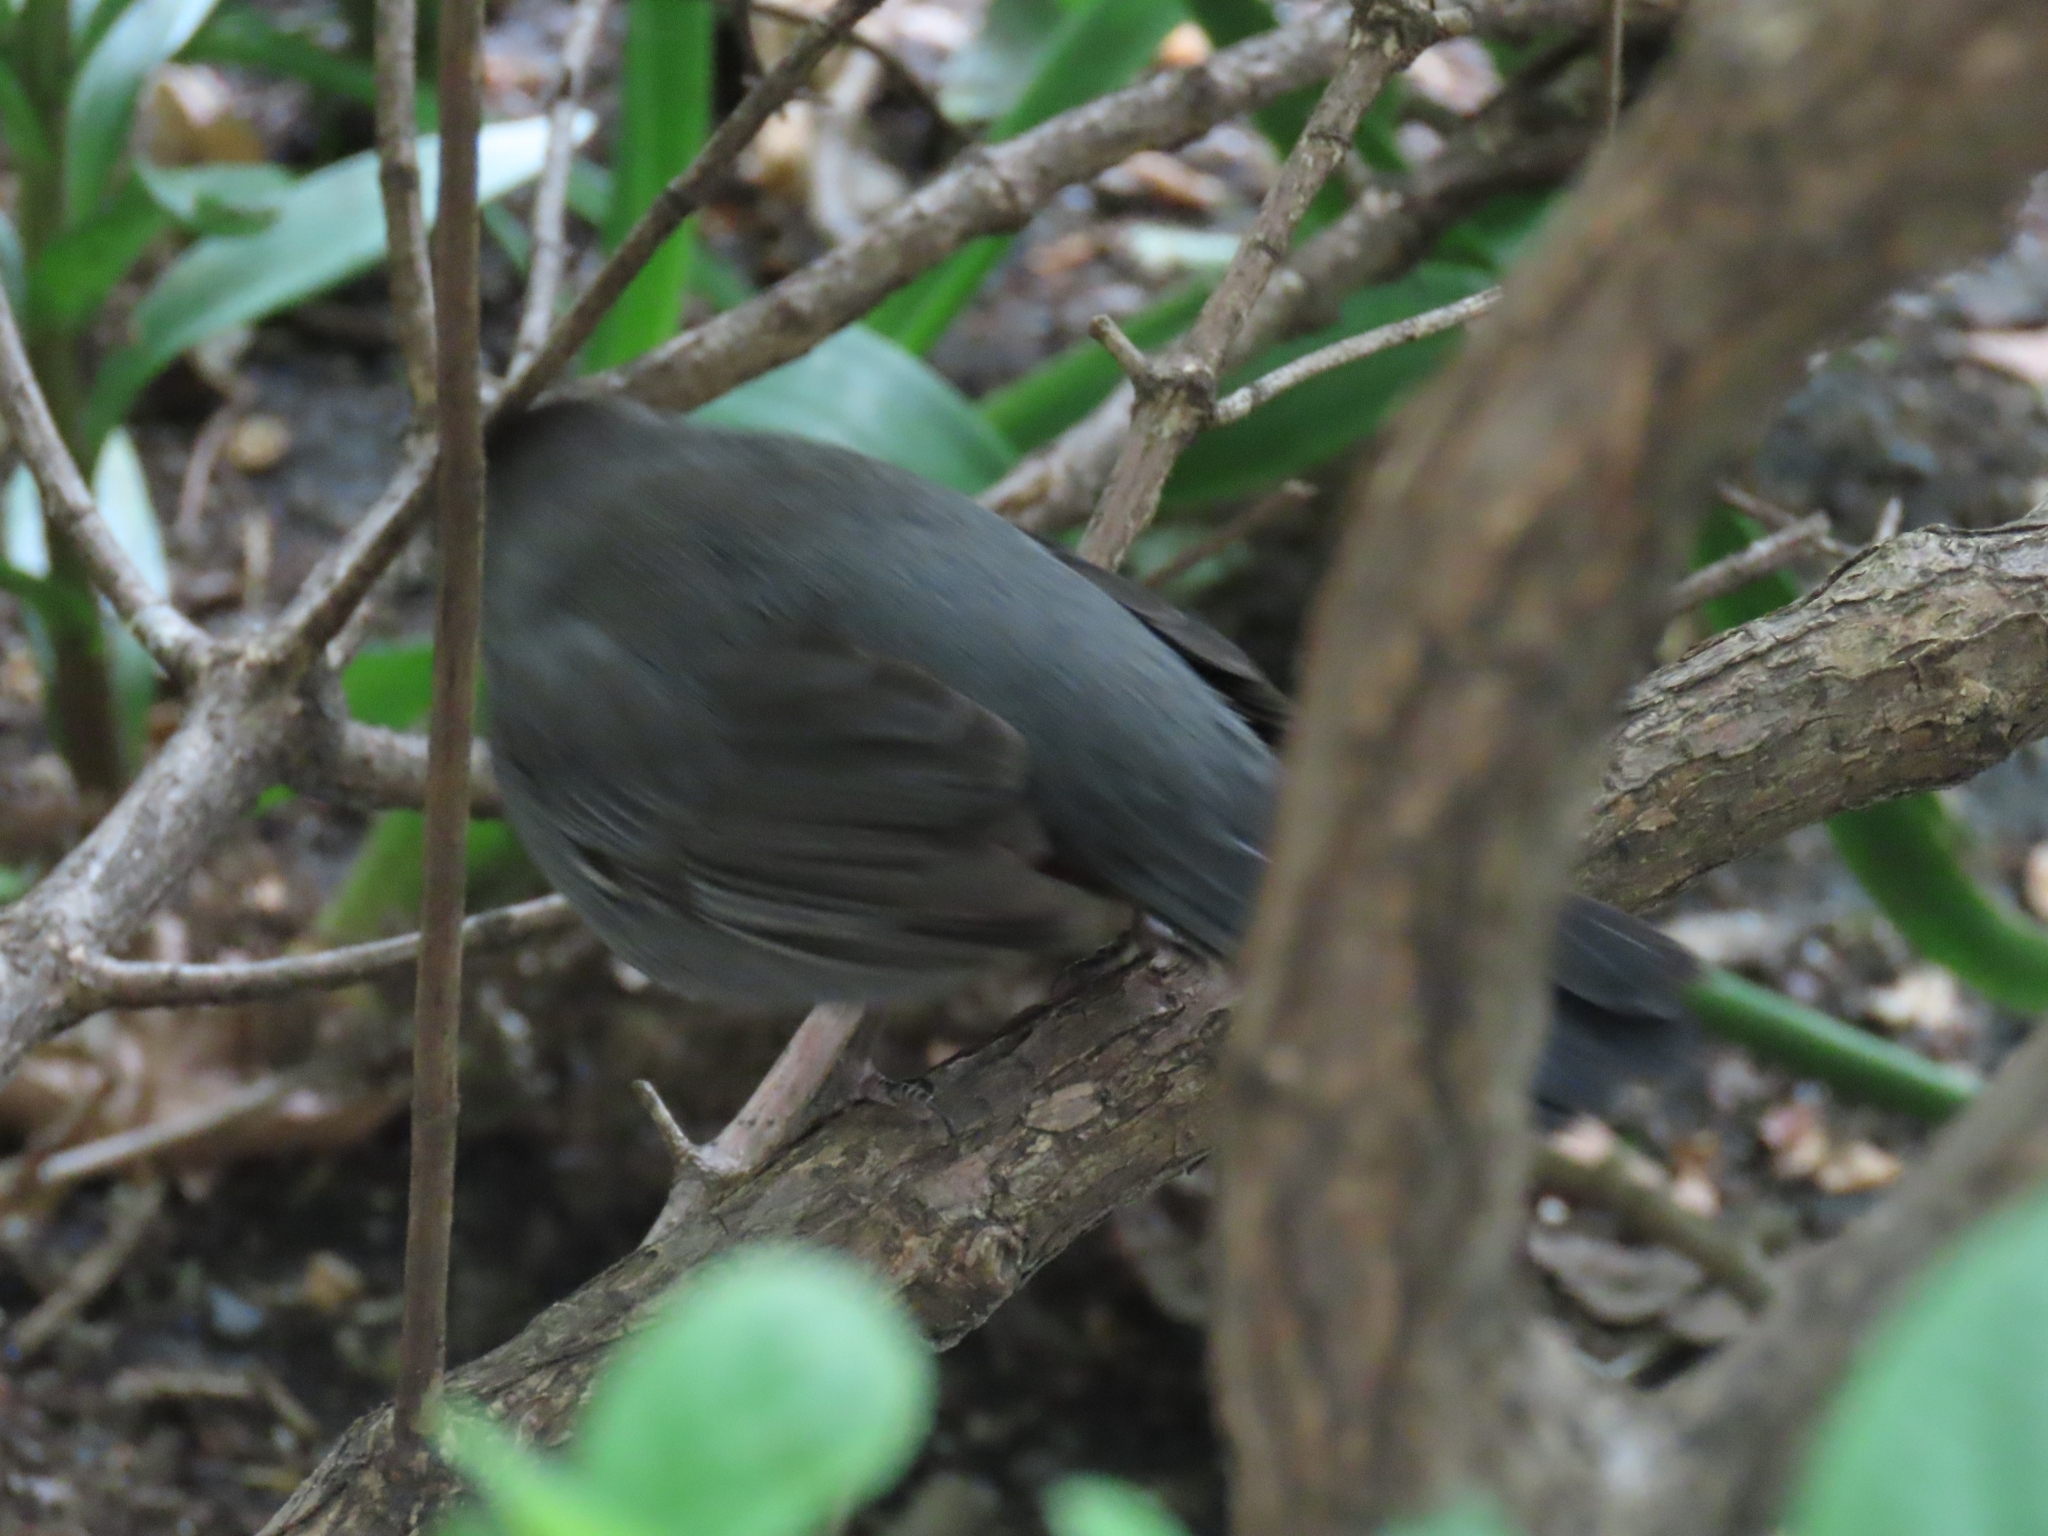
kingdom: Animalia
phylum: Chordata
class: Aves
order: Passeriformes
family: Mimidae
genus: Dumetella
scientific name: Dumetella carolinensis
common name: Gray catbird
